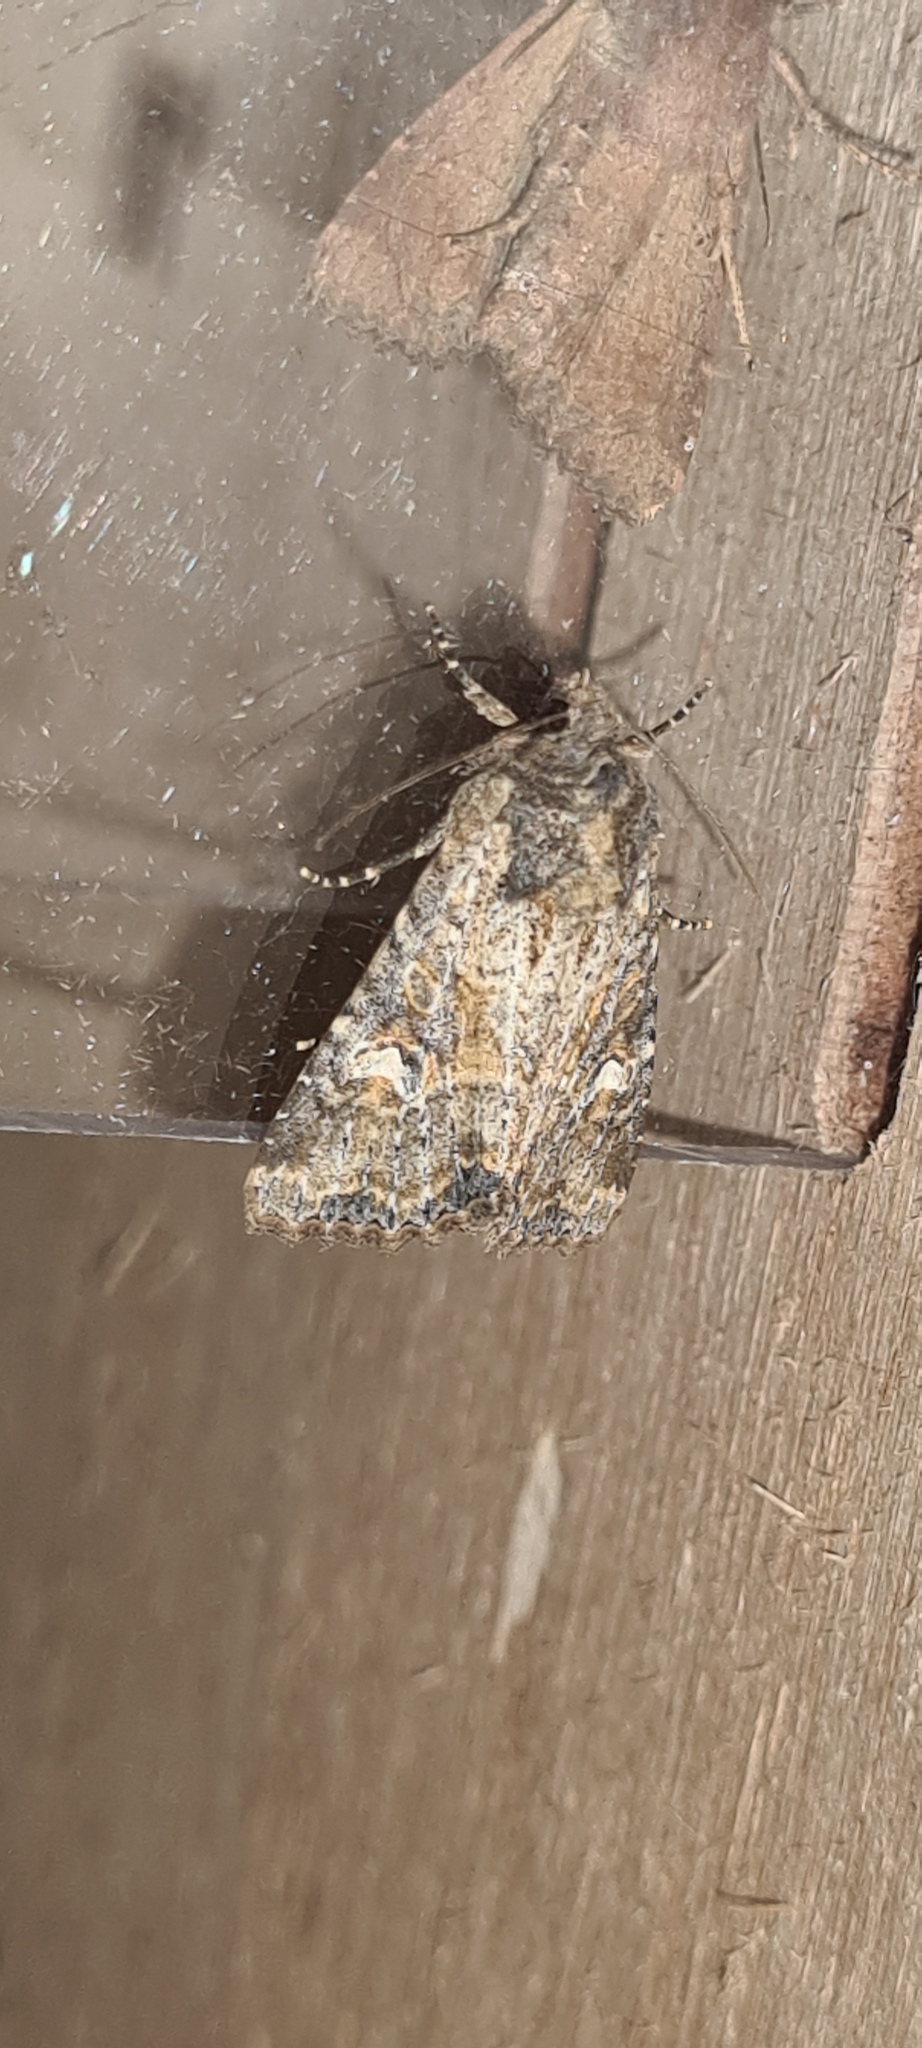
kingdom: Animalia
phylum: Arthropoda
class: Insecta
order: Lepidoptera
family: Noctuidae
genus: Mesapamea
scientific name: Mesapamea
